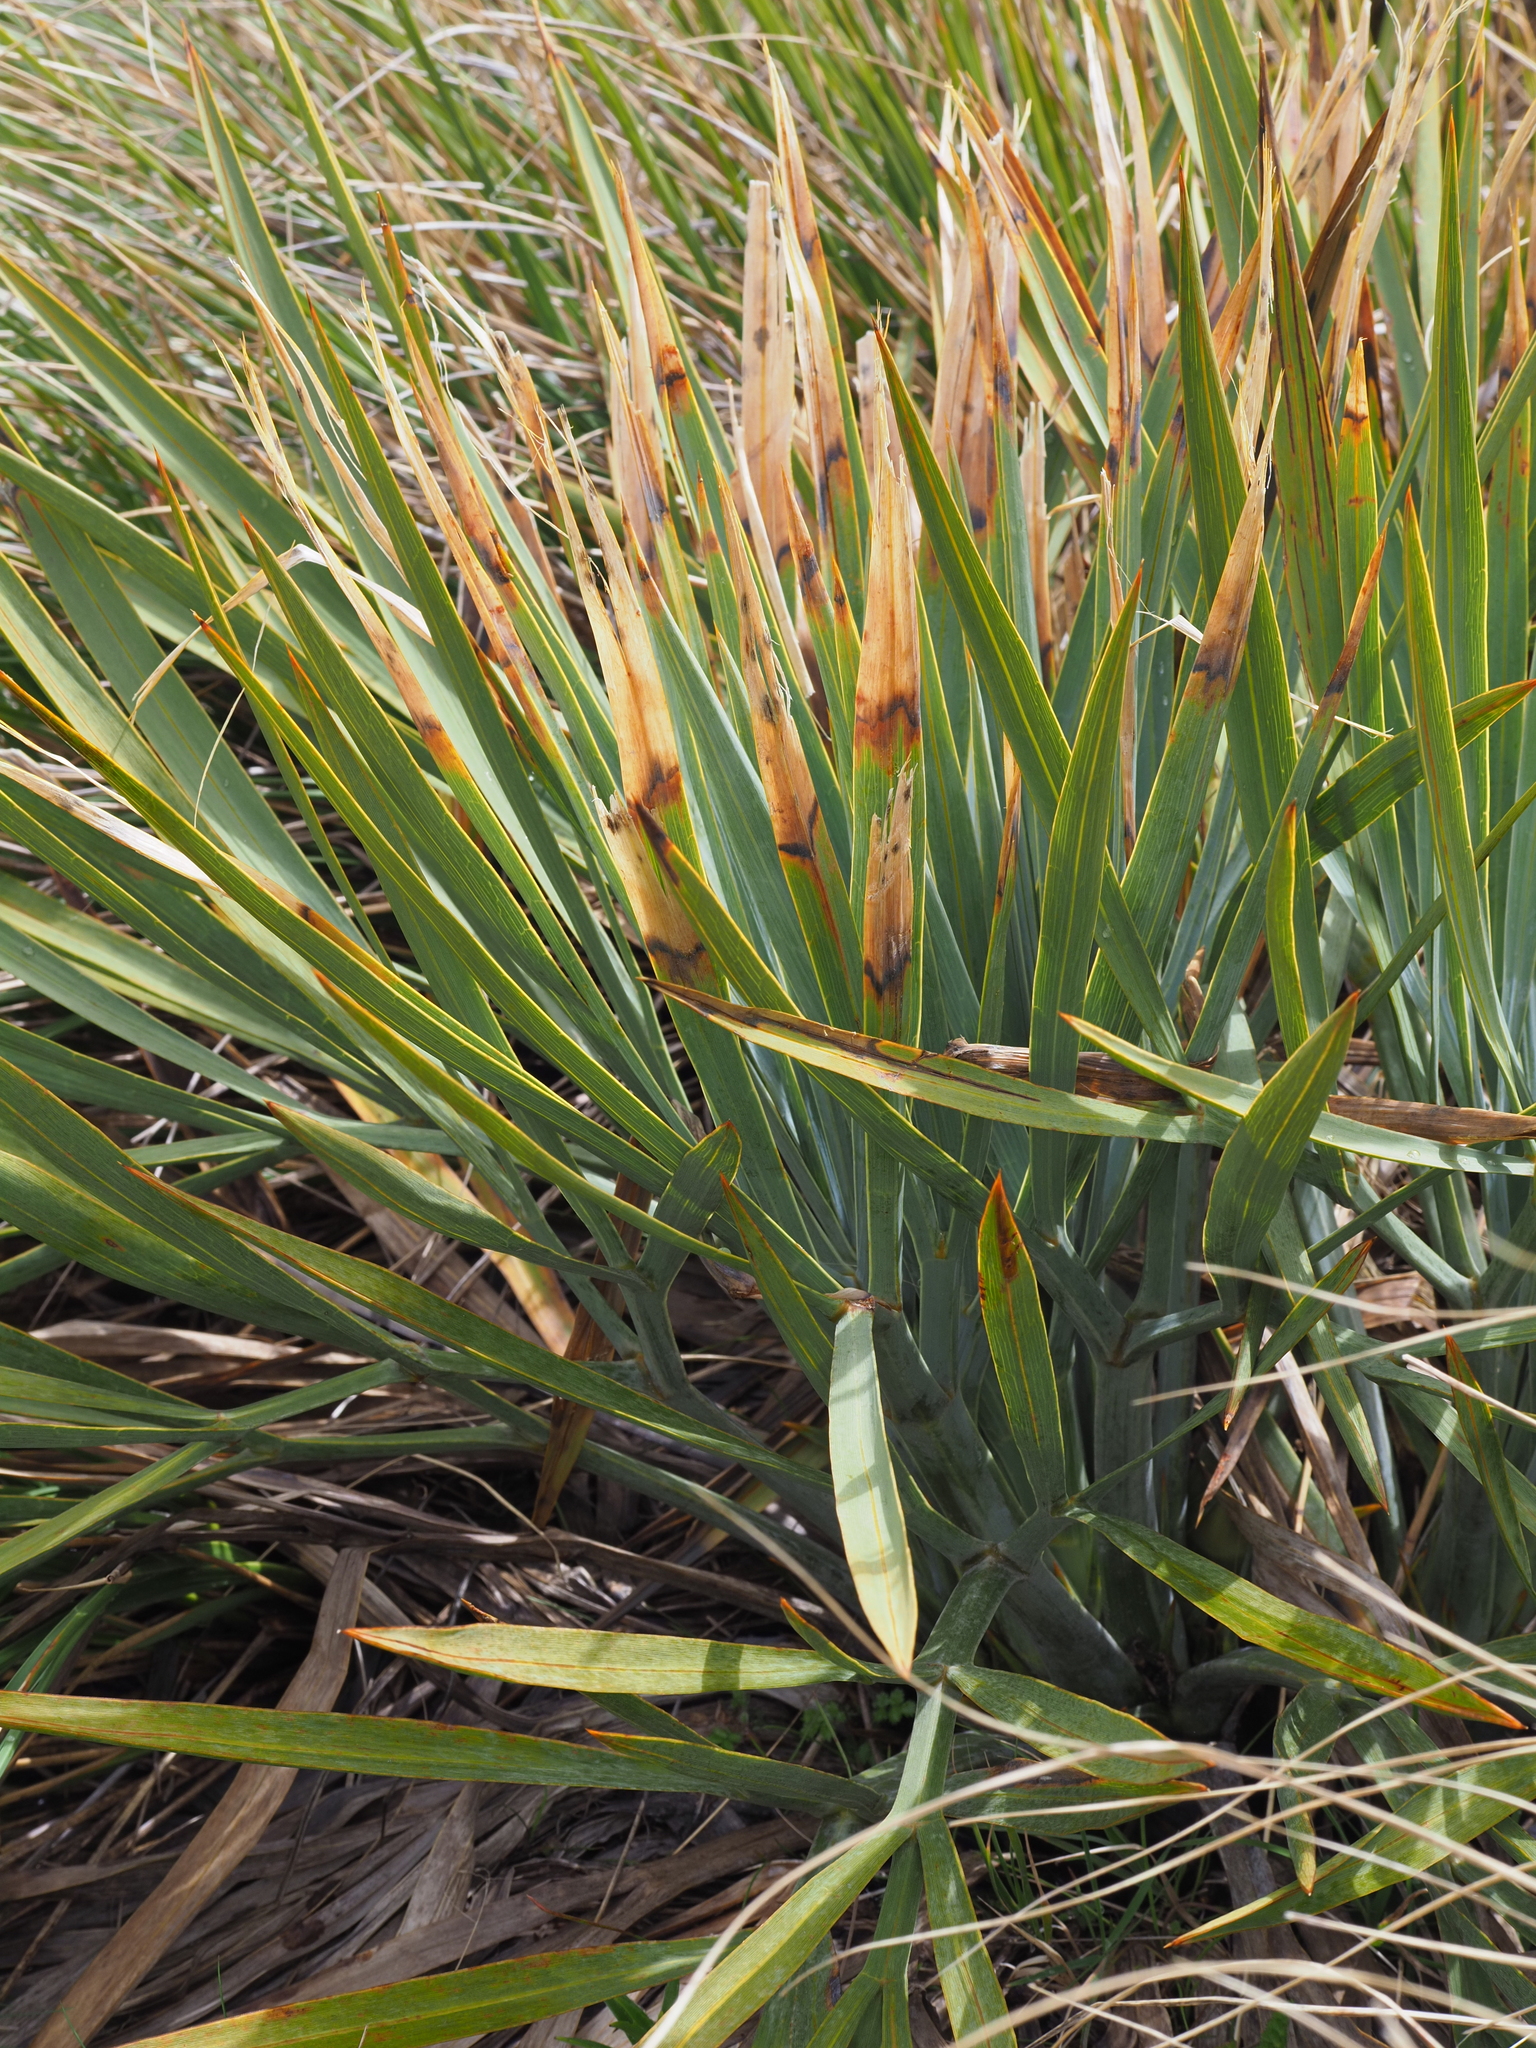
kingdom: Plantae
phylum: Tracheophyta
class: Magnoliopsida
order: Apiales
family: Apiaceae
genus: Aciphylla
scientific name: Aciphylla scott-thomsonii
